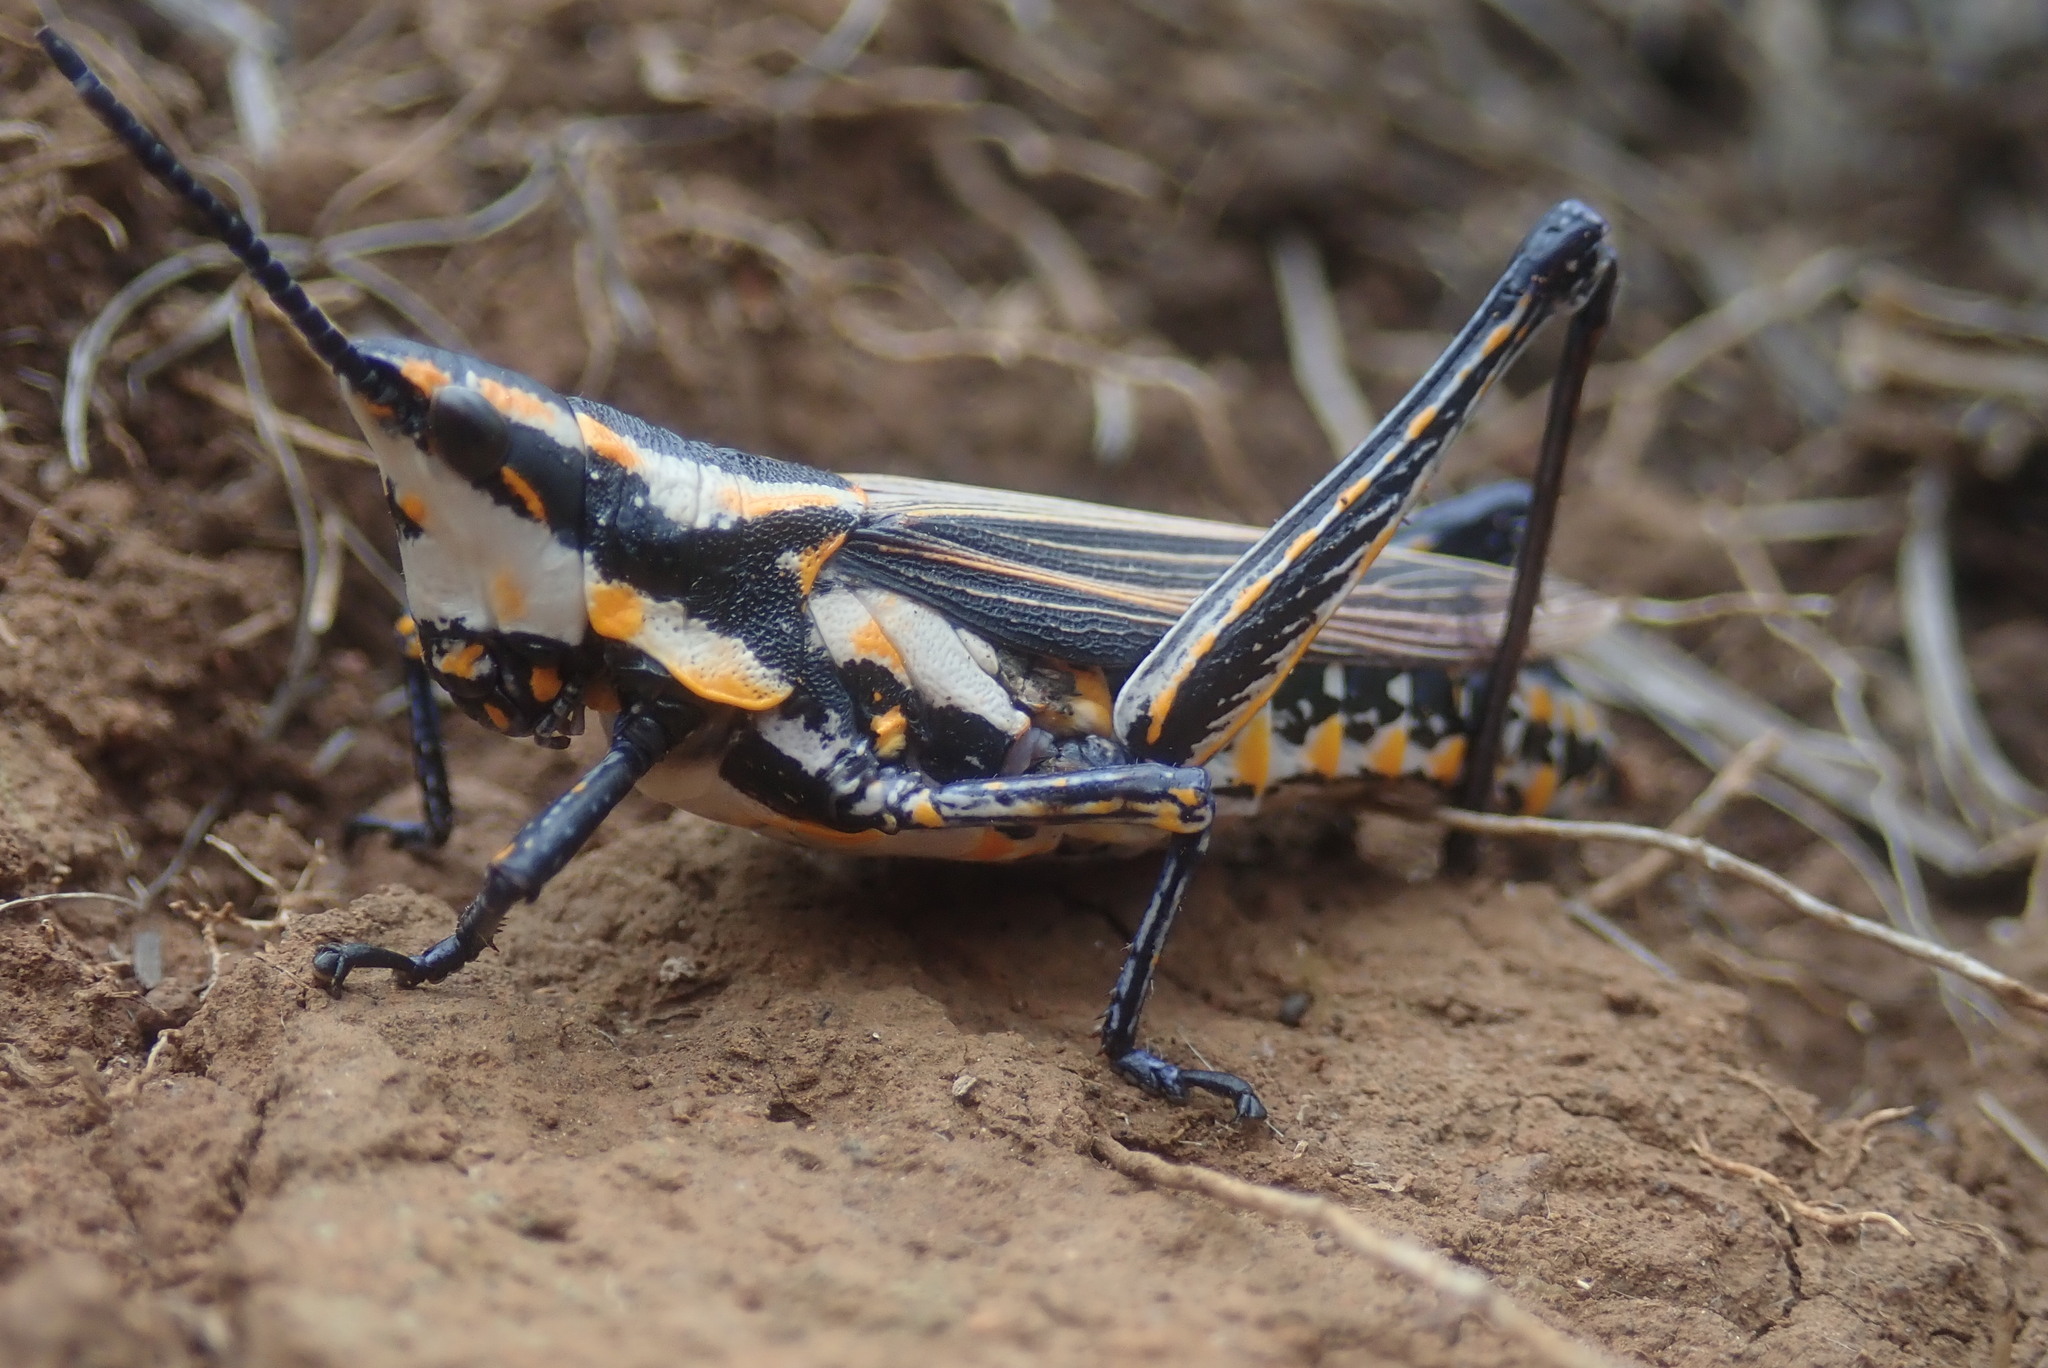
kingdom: Animalia
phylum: Arthropoda
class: Insecta
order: Orthoptera
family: Pyrgomorphidae
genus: Ochrophlebia
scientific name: Ochrophlebia cafra
